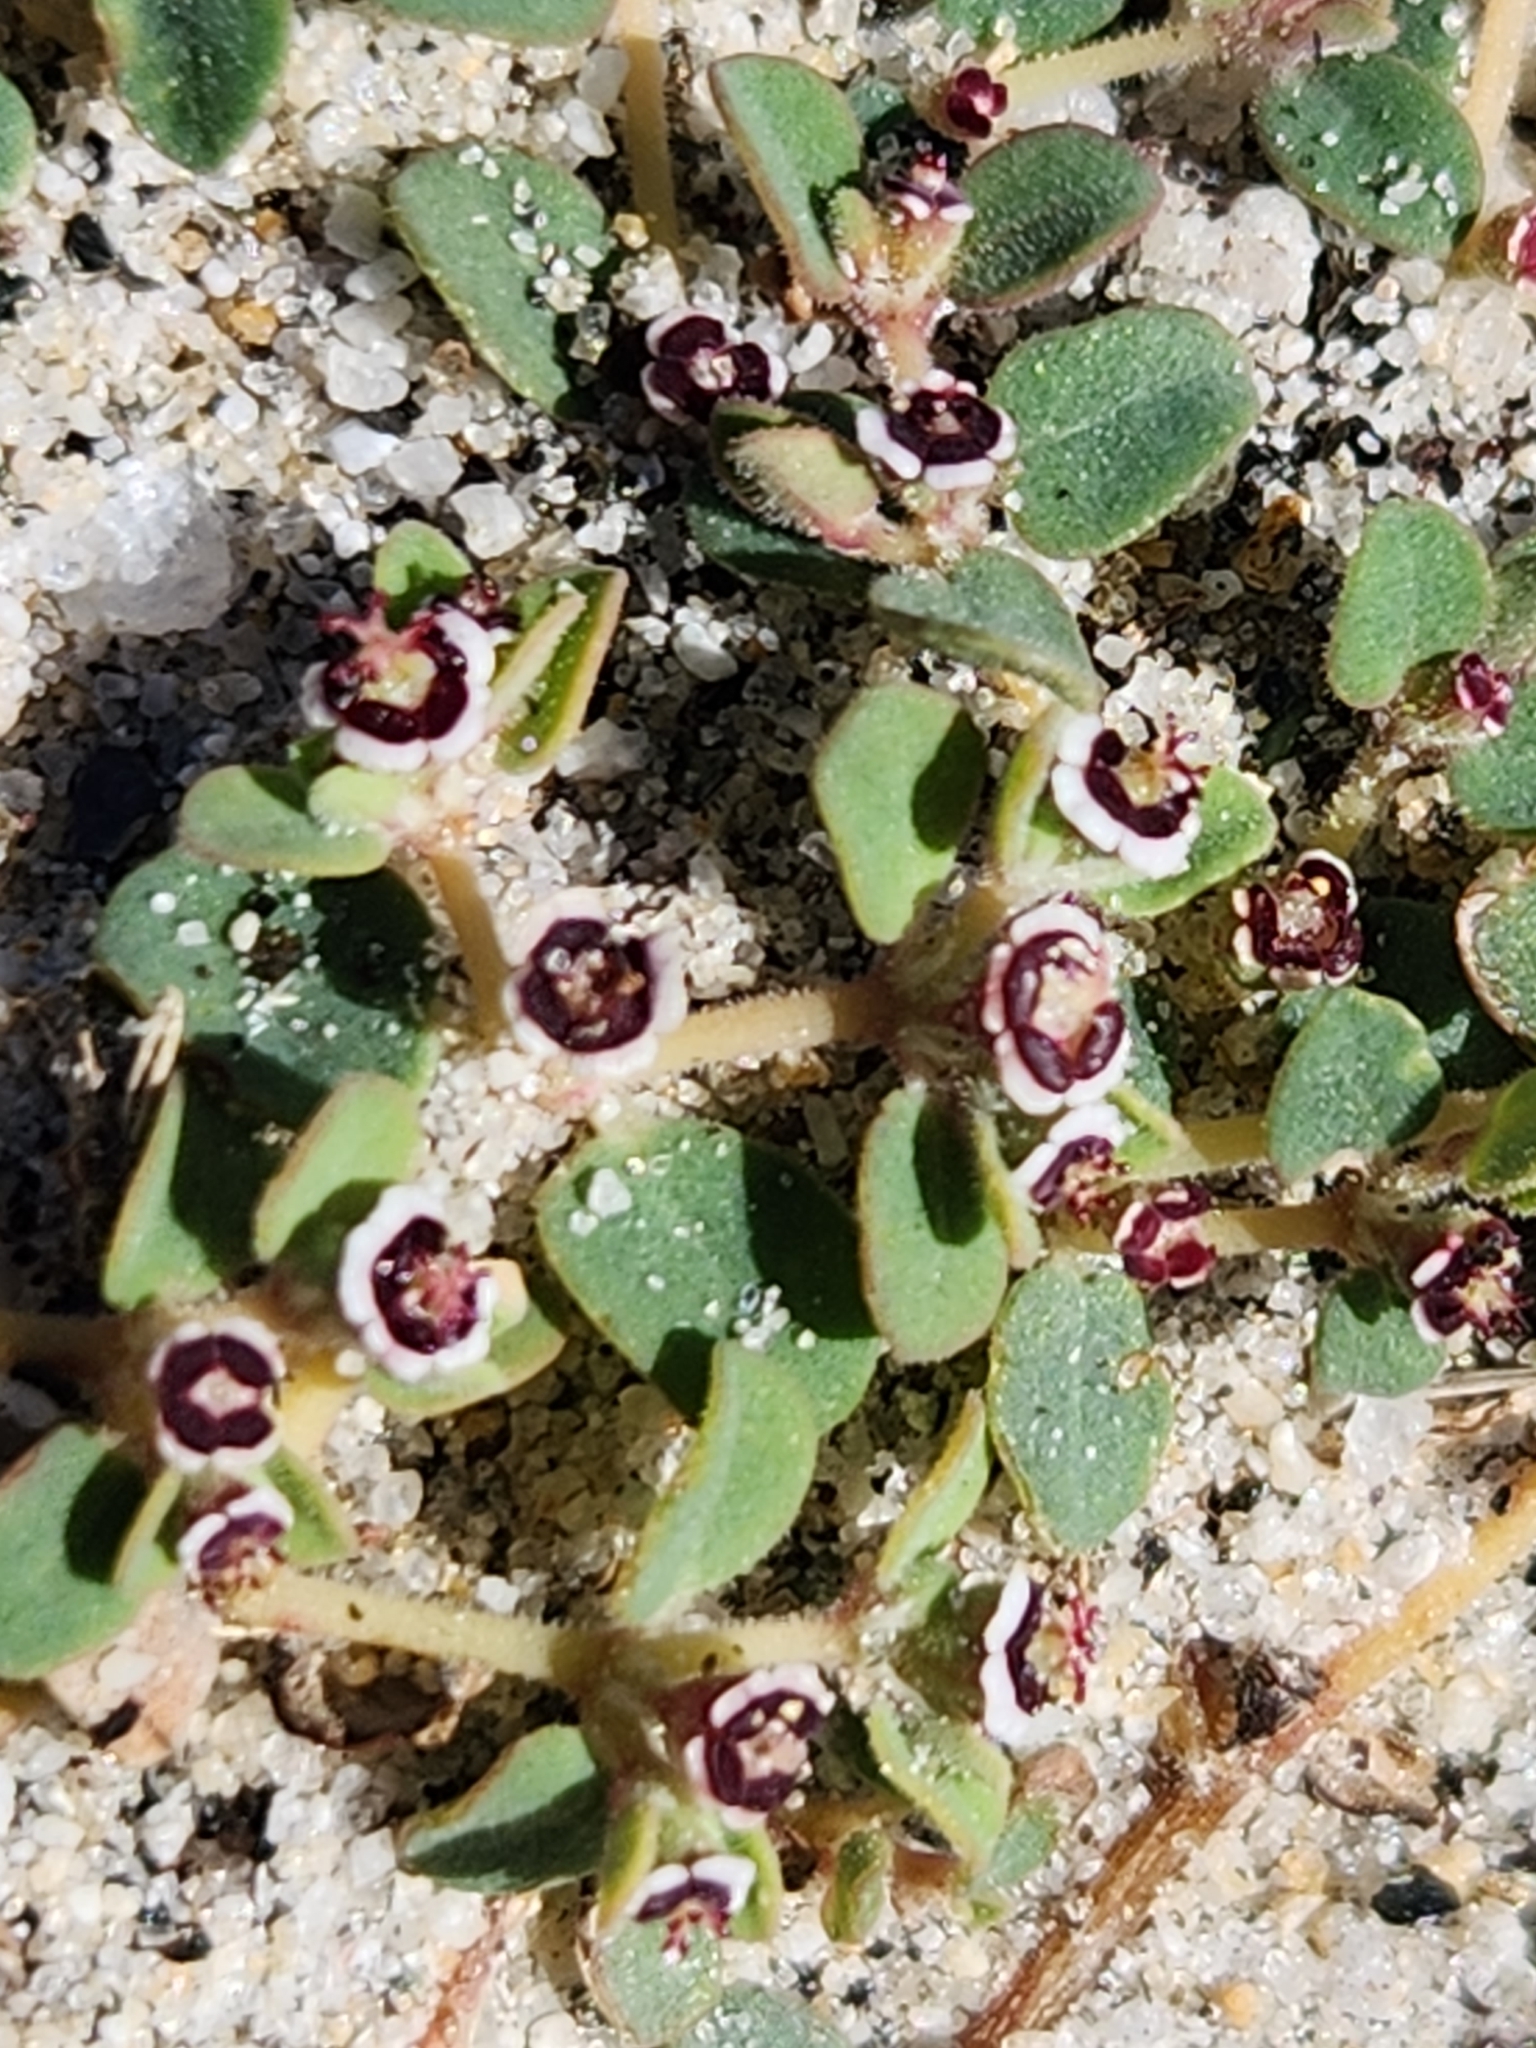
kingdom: Plantae
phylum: Tracheophyta
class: Magnoliopsida
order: Malpighiales
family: Euphorbiaceae
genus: Euphorbia
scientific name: Euphorbia polycarpa
